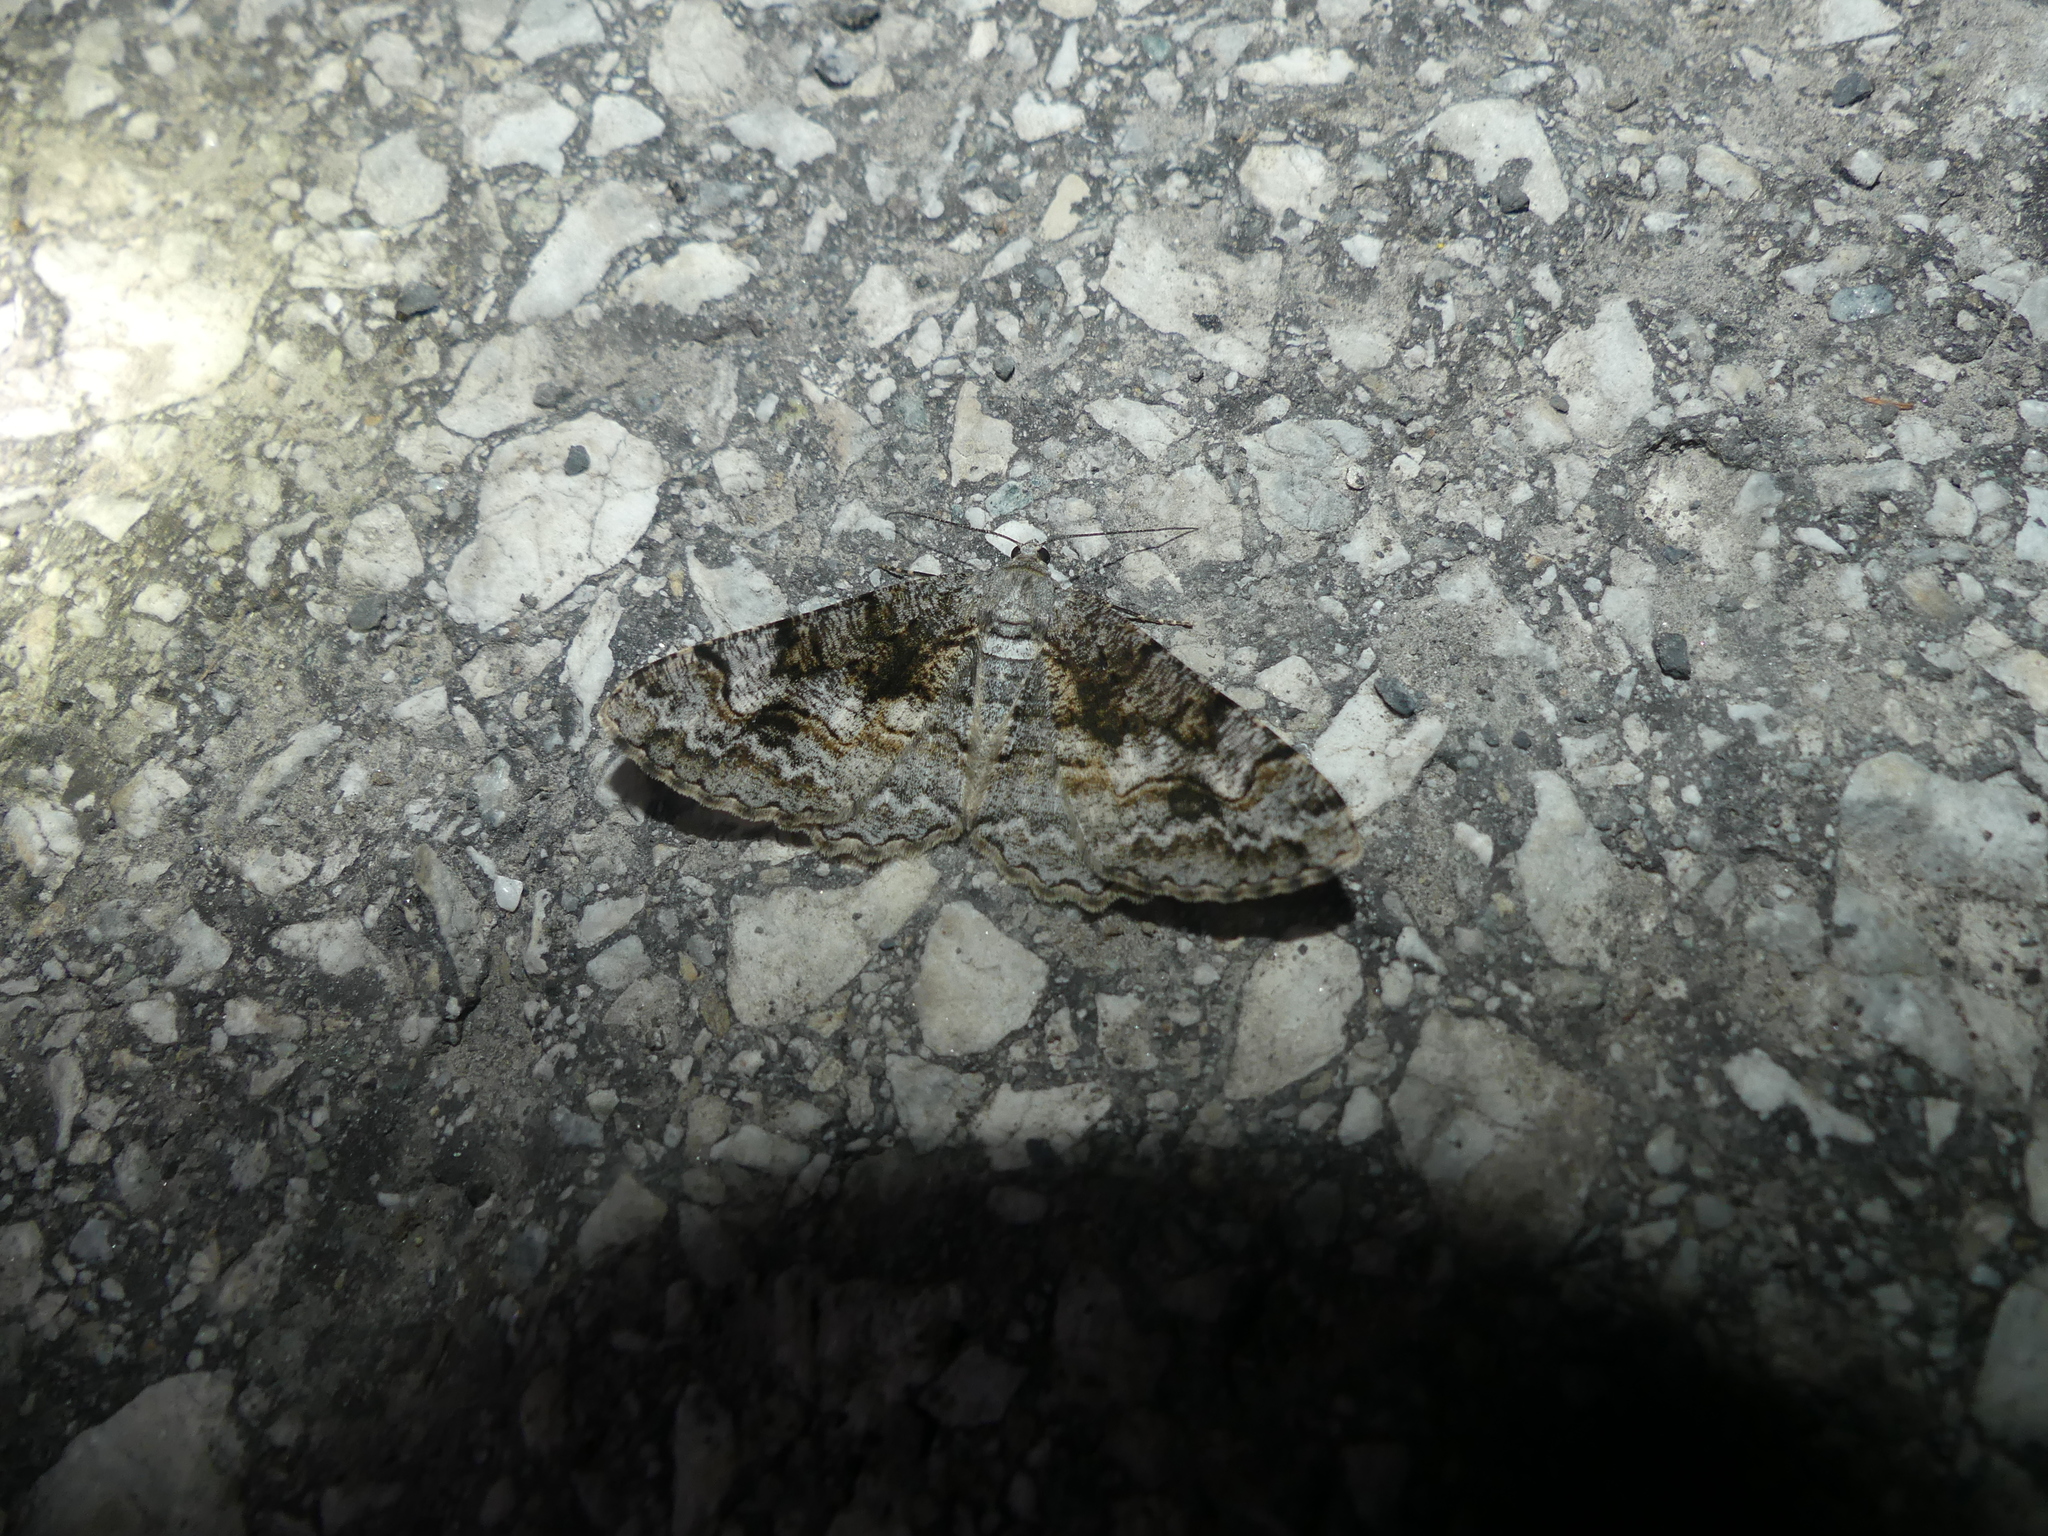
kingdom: Animalia
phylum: Arthropoda
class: Insecta
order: Lepidoptera
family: Geometridae
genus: Alcis
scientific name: Alcis repandata
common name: Mottled beauty
